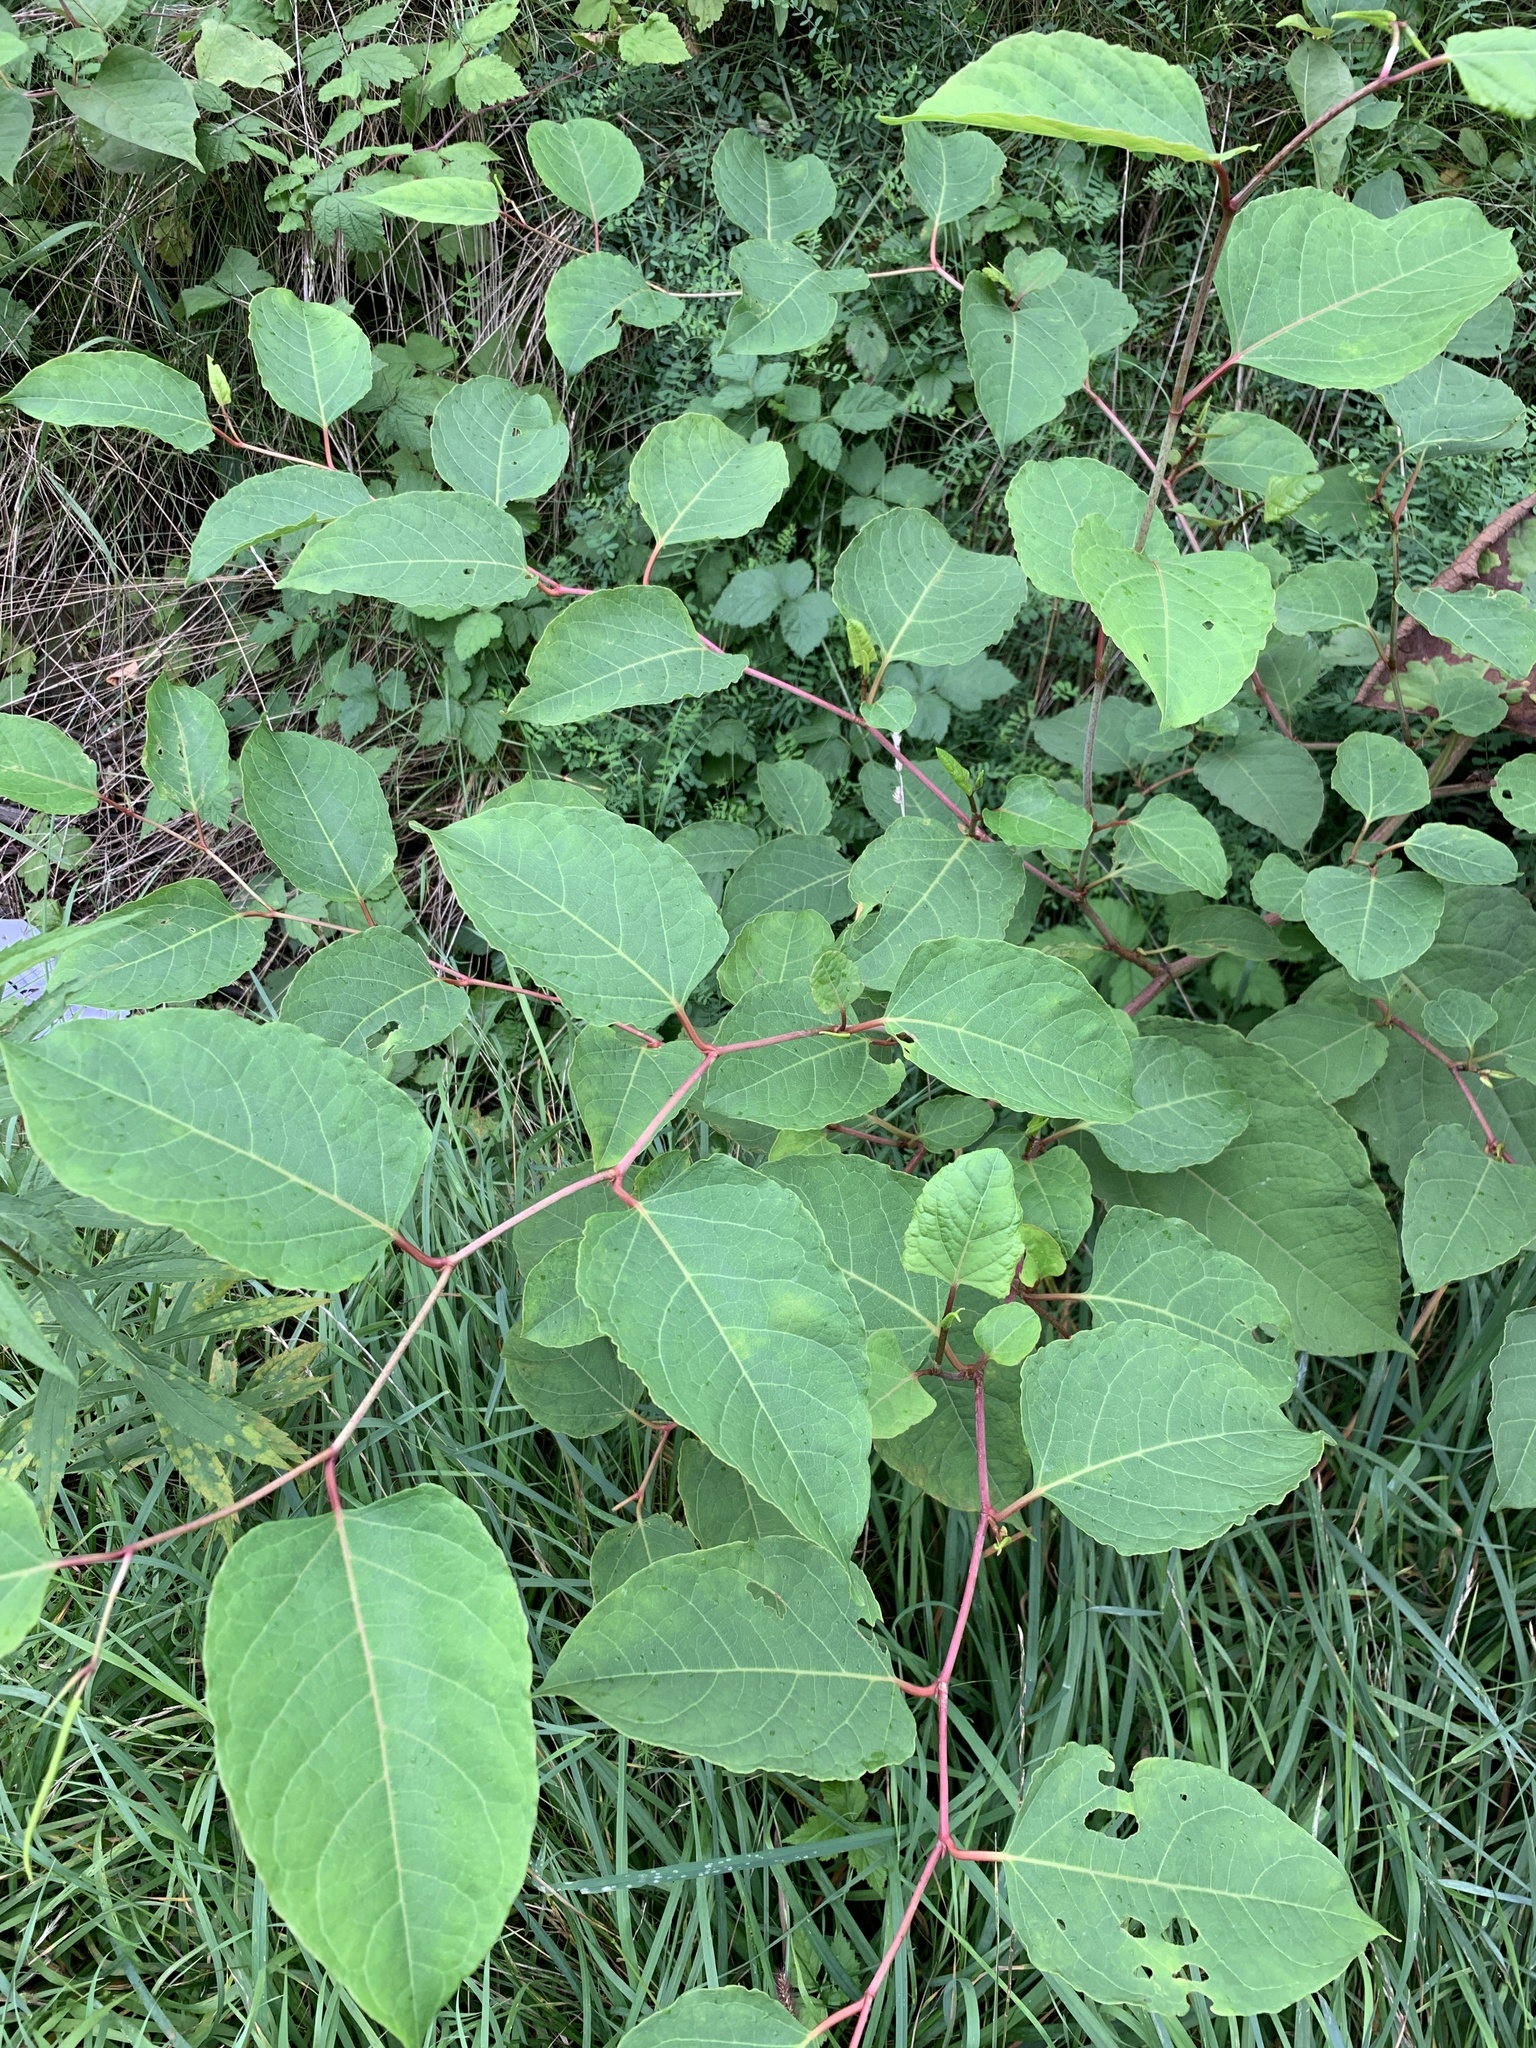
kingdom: Plantae
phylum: Tracheophyta
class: Magnoliopsida
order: Caryophyllales
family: Polygonaceae
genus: Reynoutria
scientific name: Reynoutria japonica
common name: Japanese knotweed
